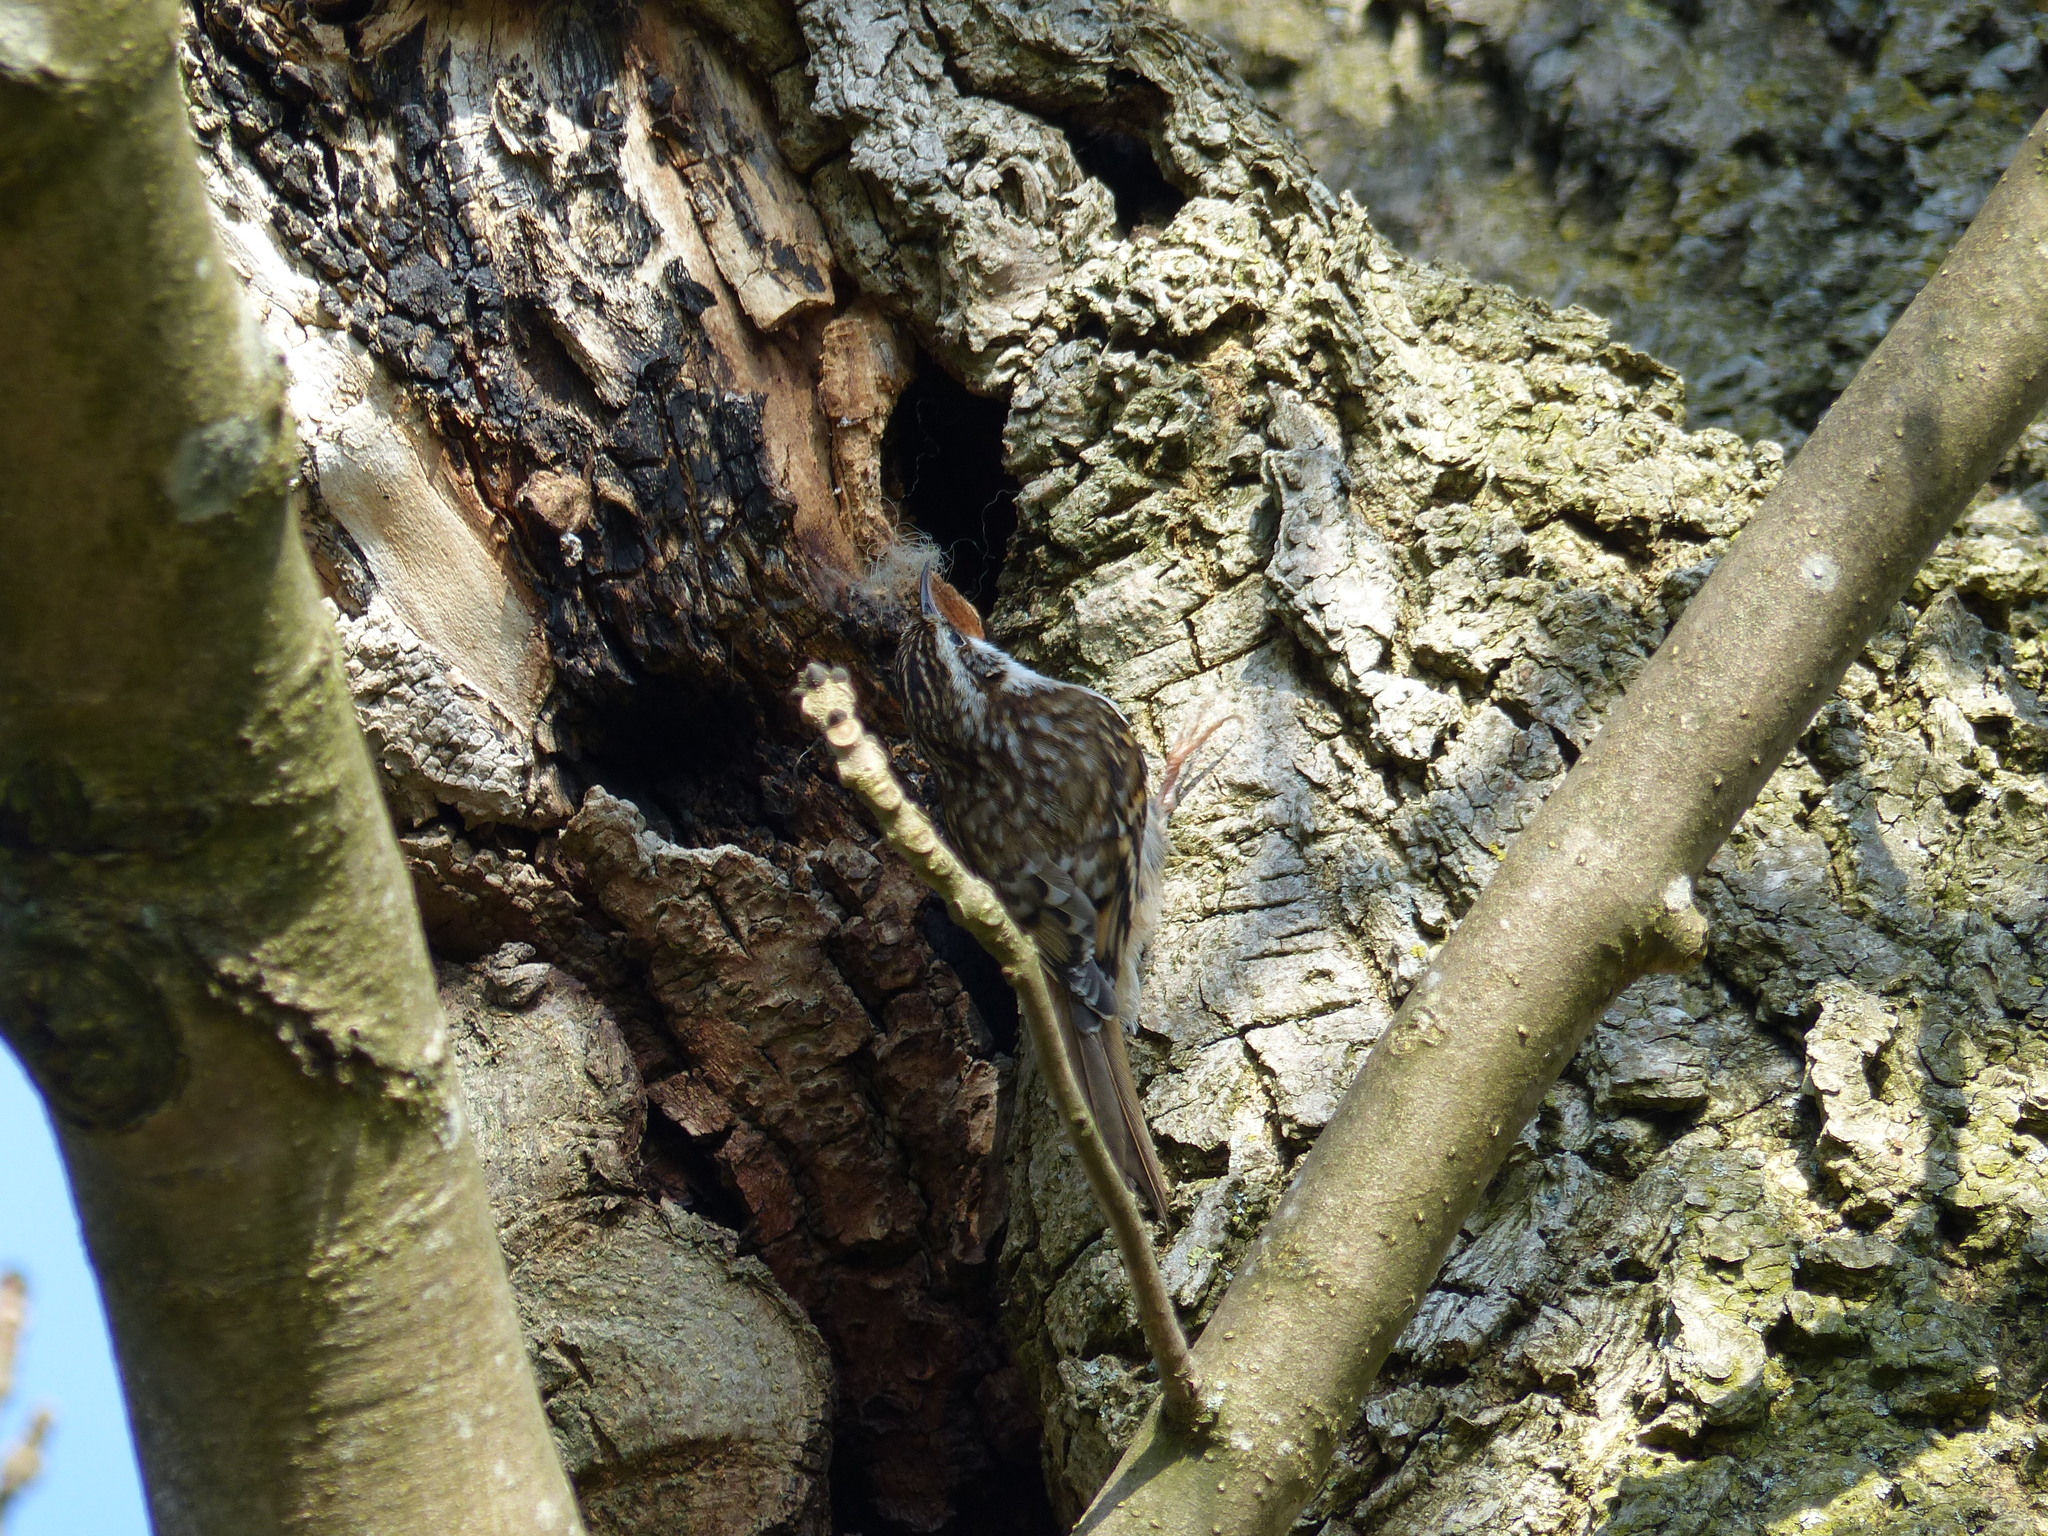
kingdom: Animalia
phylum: Chordata
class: Aves
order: Passeriformes
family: Certhiidae
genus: Certhia
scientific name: Certhia familiaris
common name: Eurasian treecreeper
